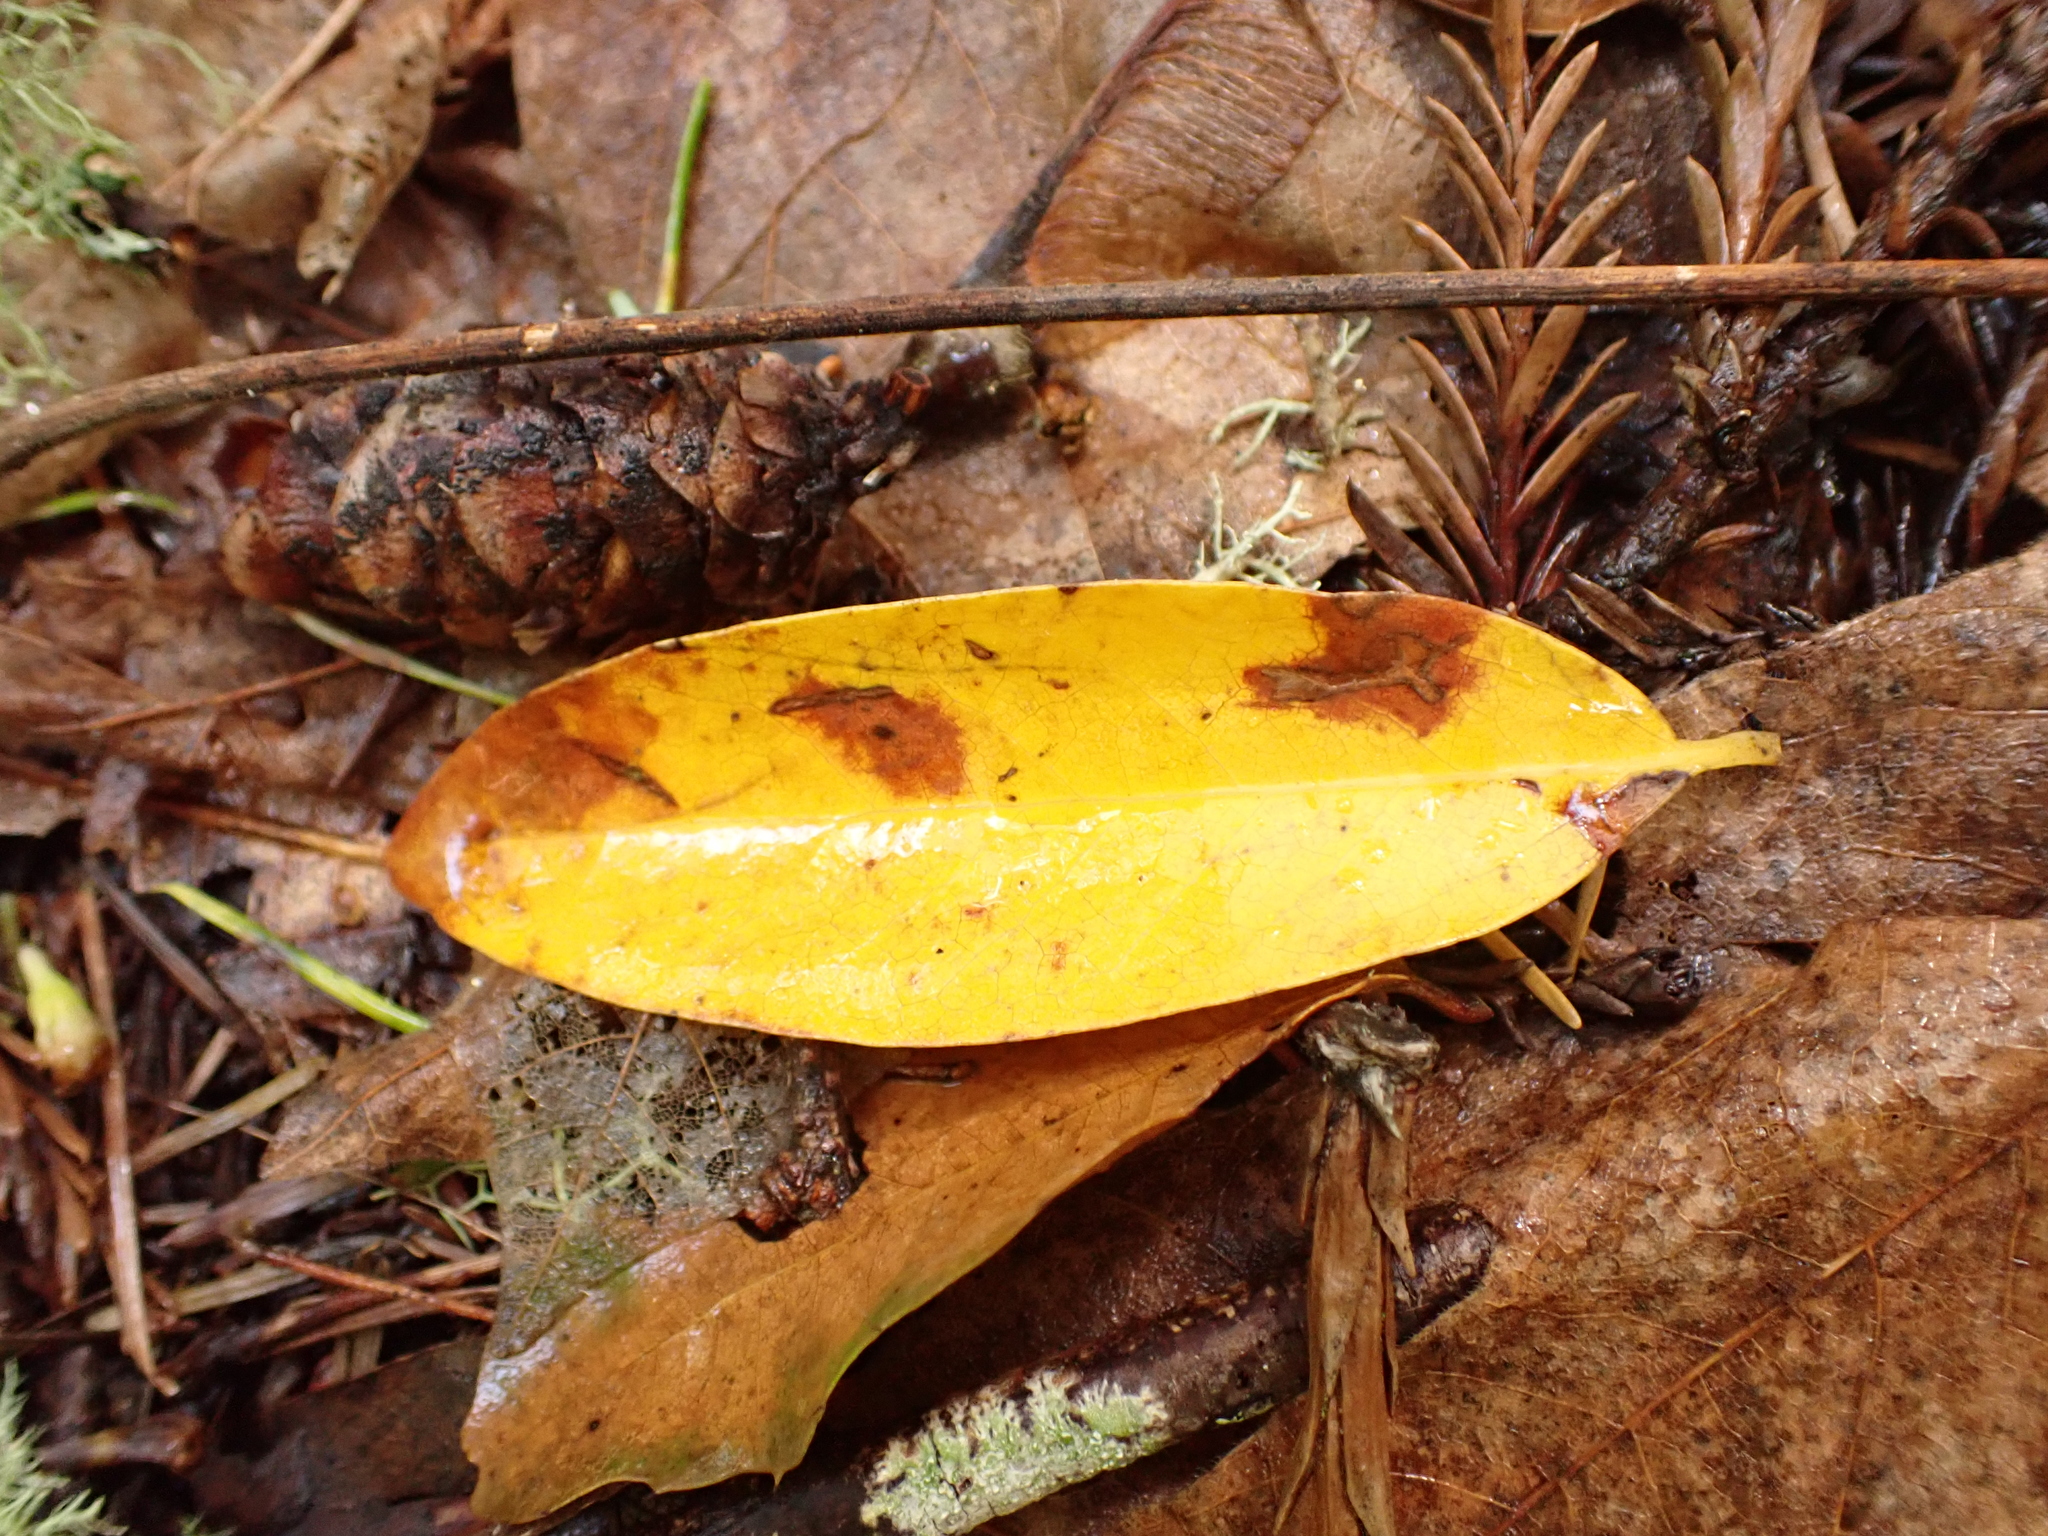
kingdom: Plantae
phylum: Tracheophyta
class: Magnoliopsida
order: Laurales
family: Lauraceae
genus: Umbellularia
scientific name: Umbellularia californica
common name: California bay
